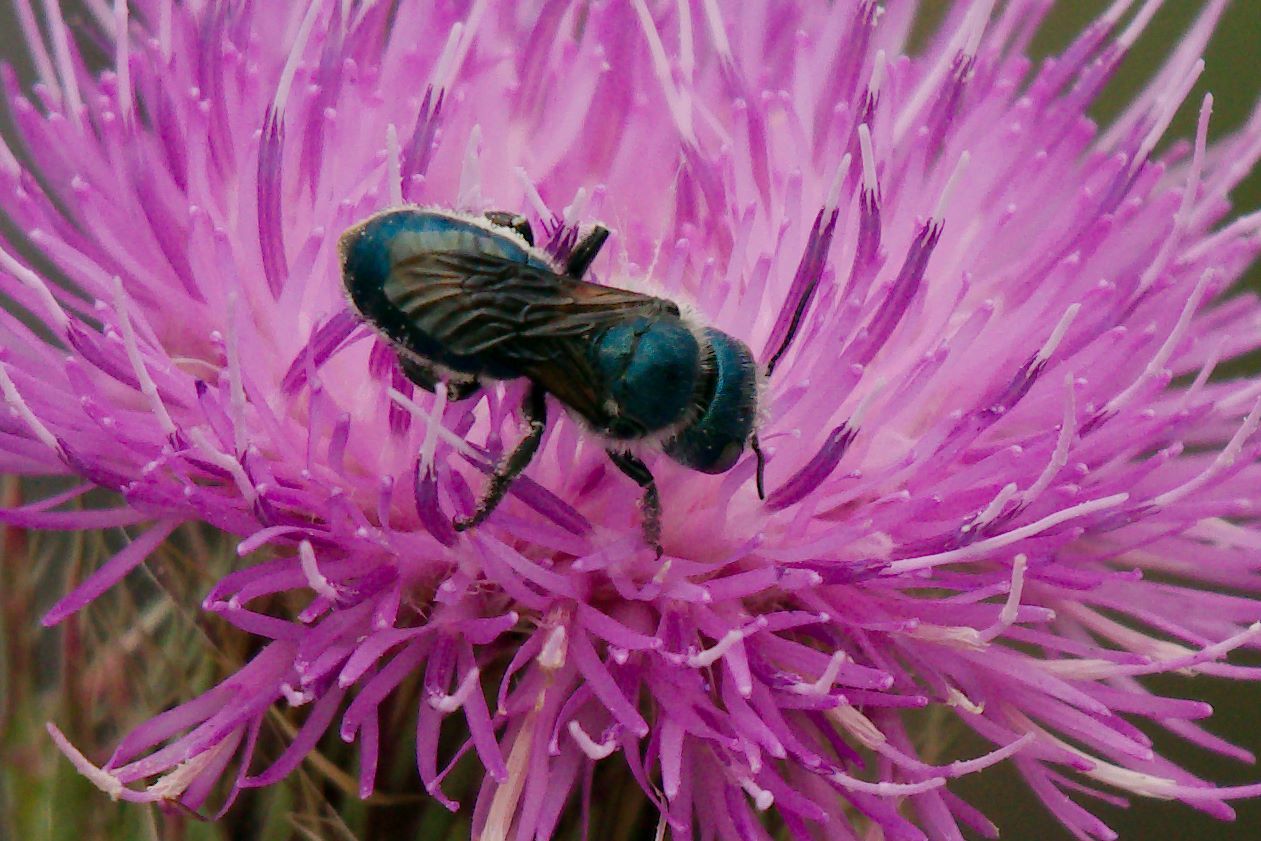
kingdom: Animalia
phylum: Arthropoda
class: Insecta
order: Hymenoptera
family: Megachilidae
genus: Osmia
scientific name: Osmia chalybea
